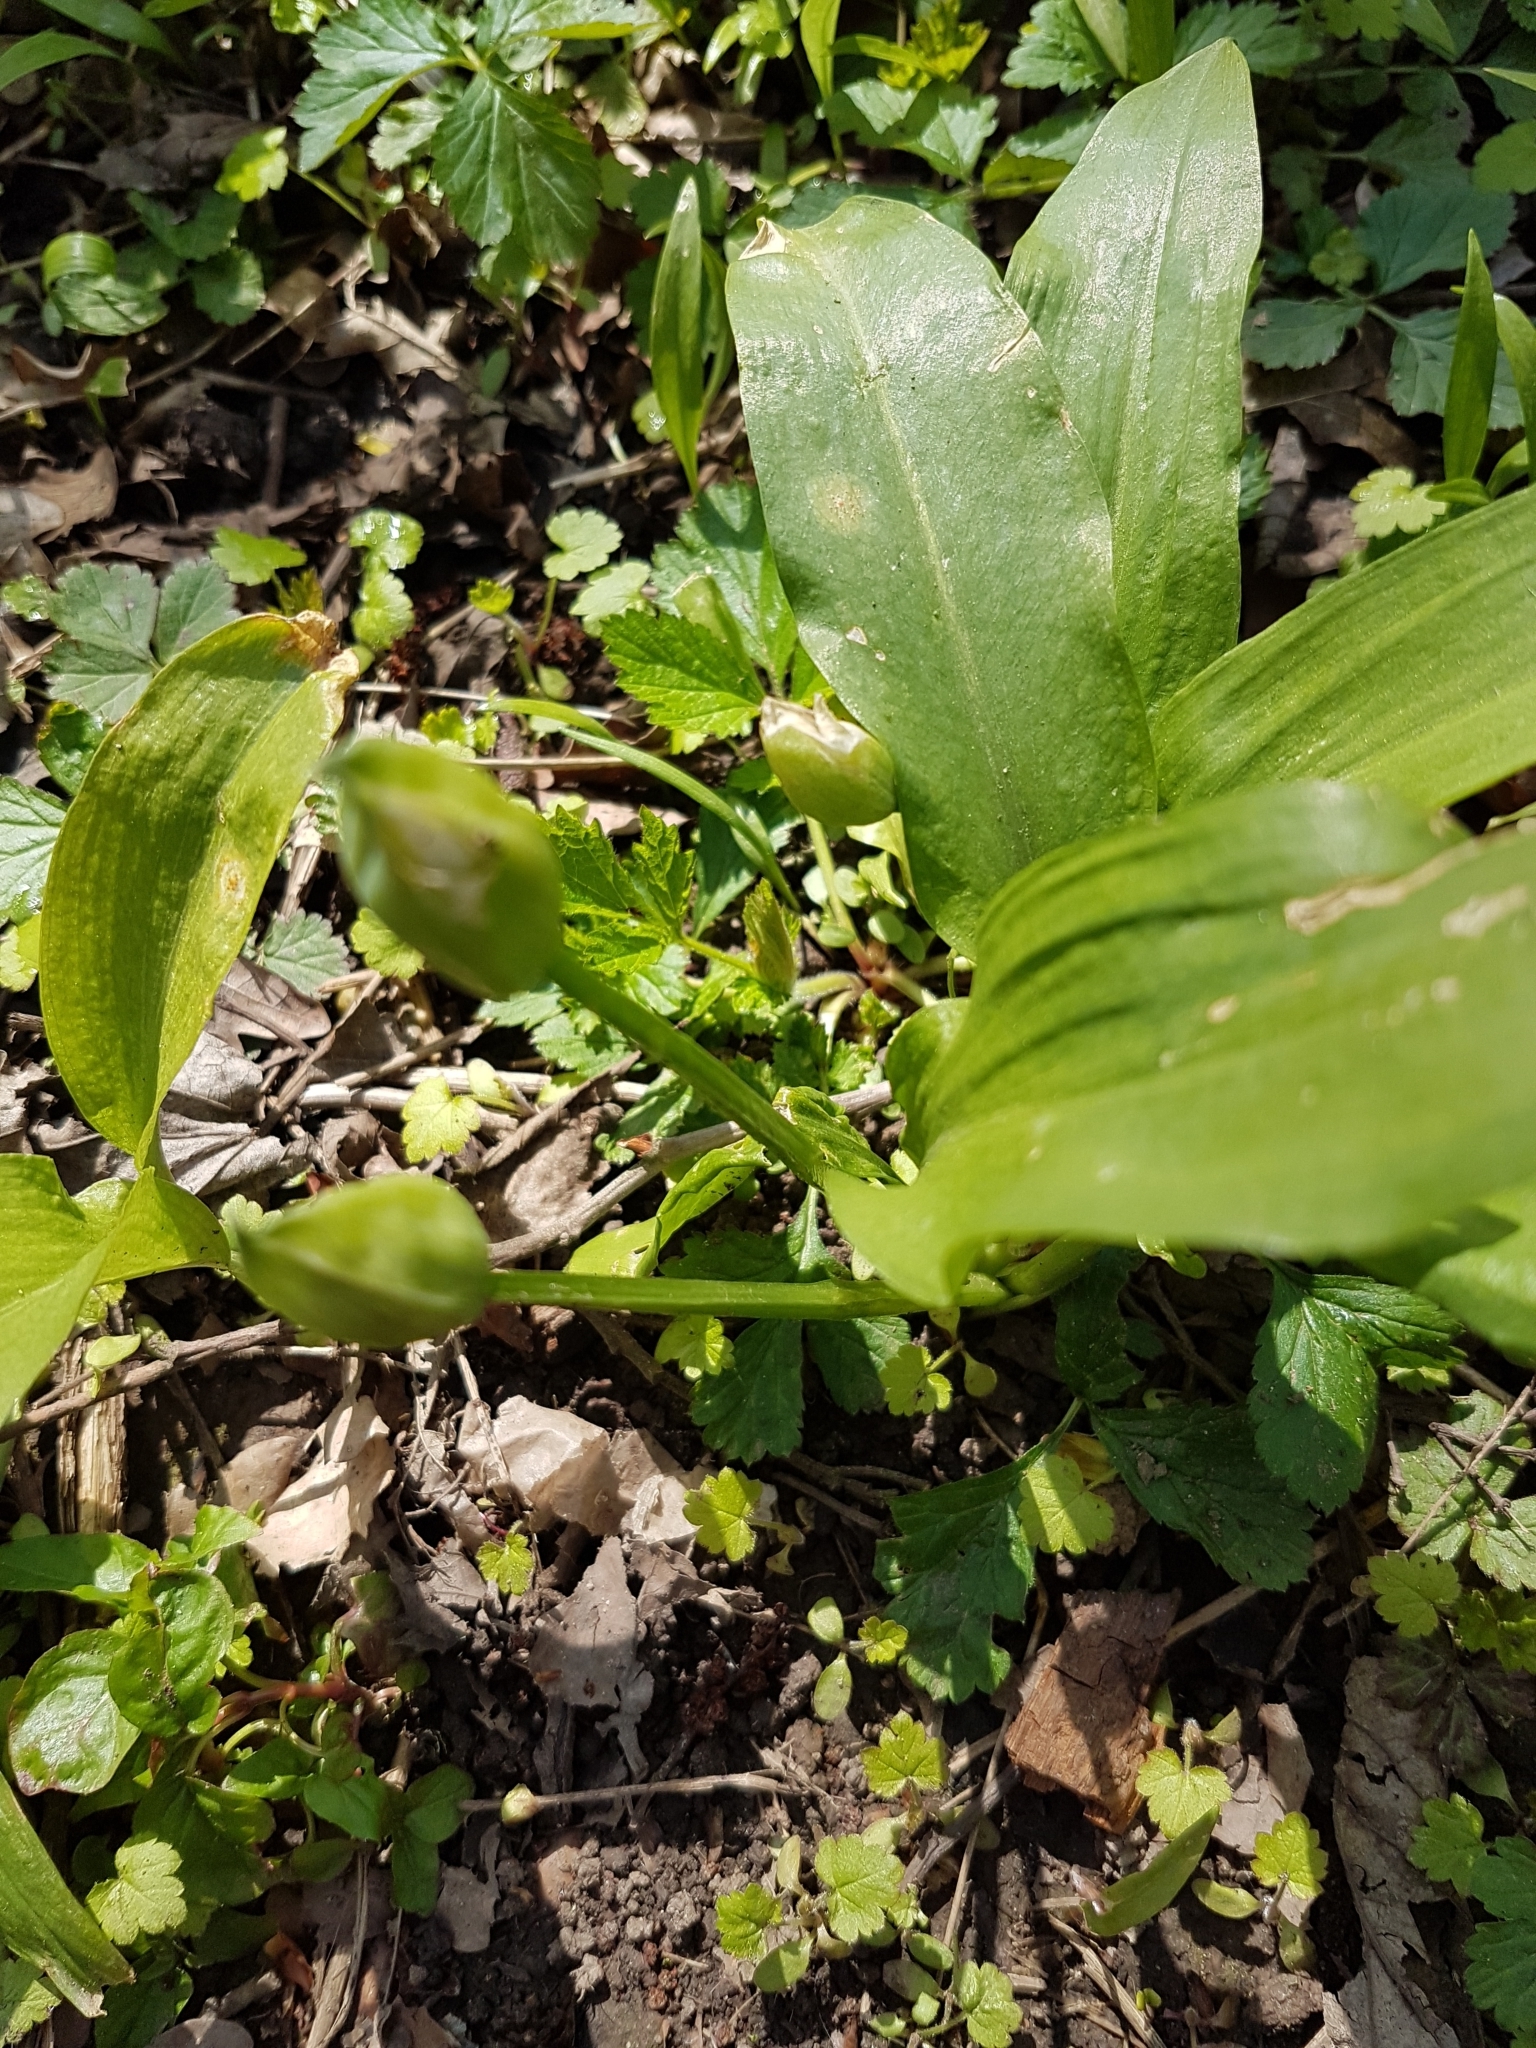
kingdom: Plantae
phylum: Tracheophyta
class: Liliopsida
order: Asparagales
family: Amaryllidaceae
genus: Allium
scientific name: Allium ursinum
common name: Ramsons
